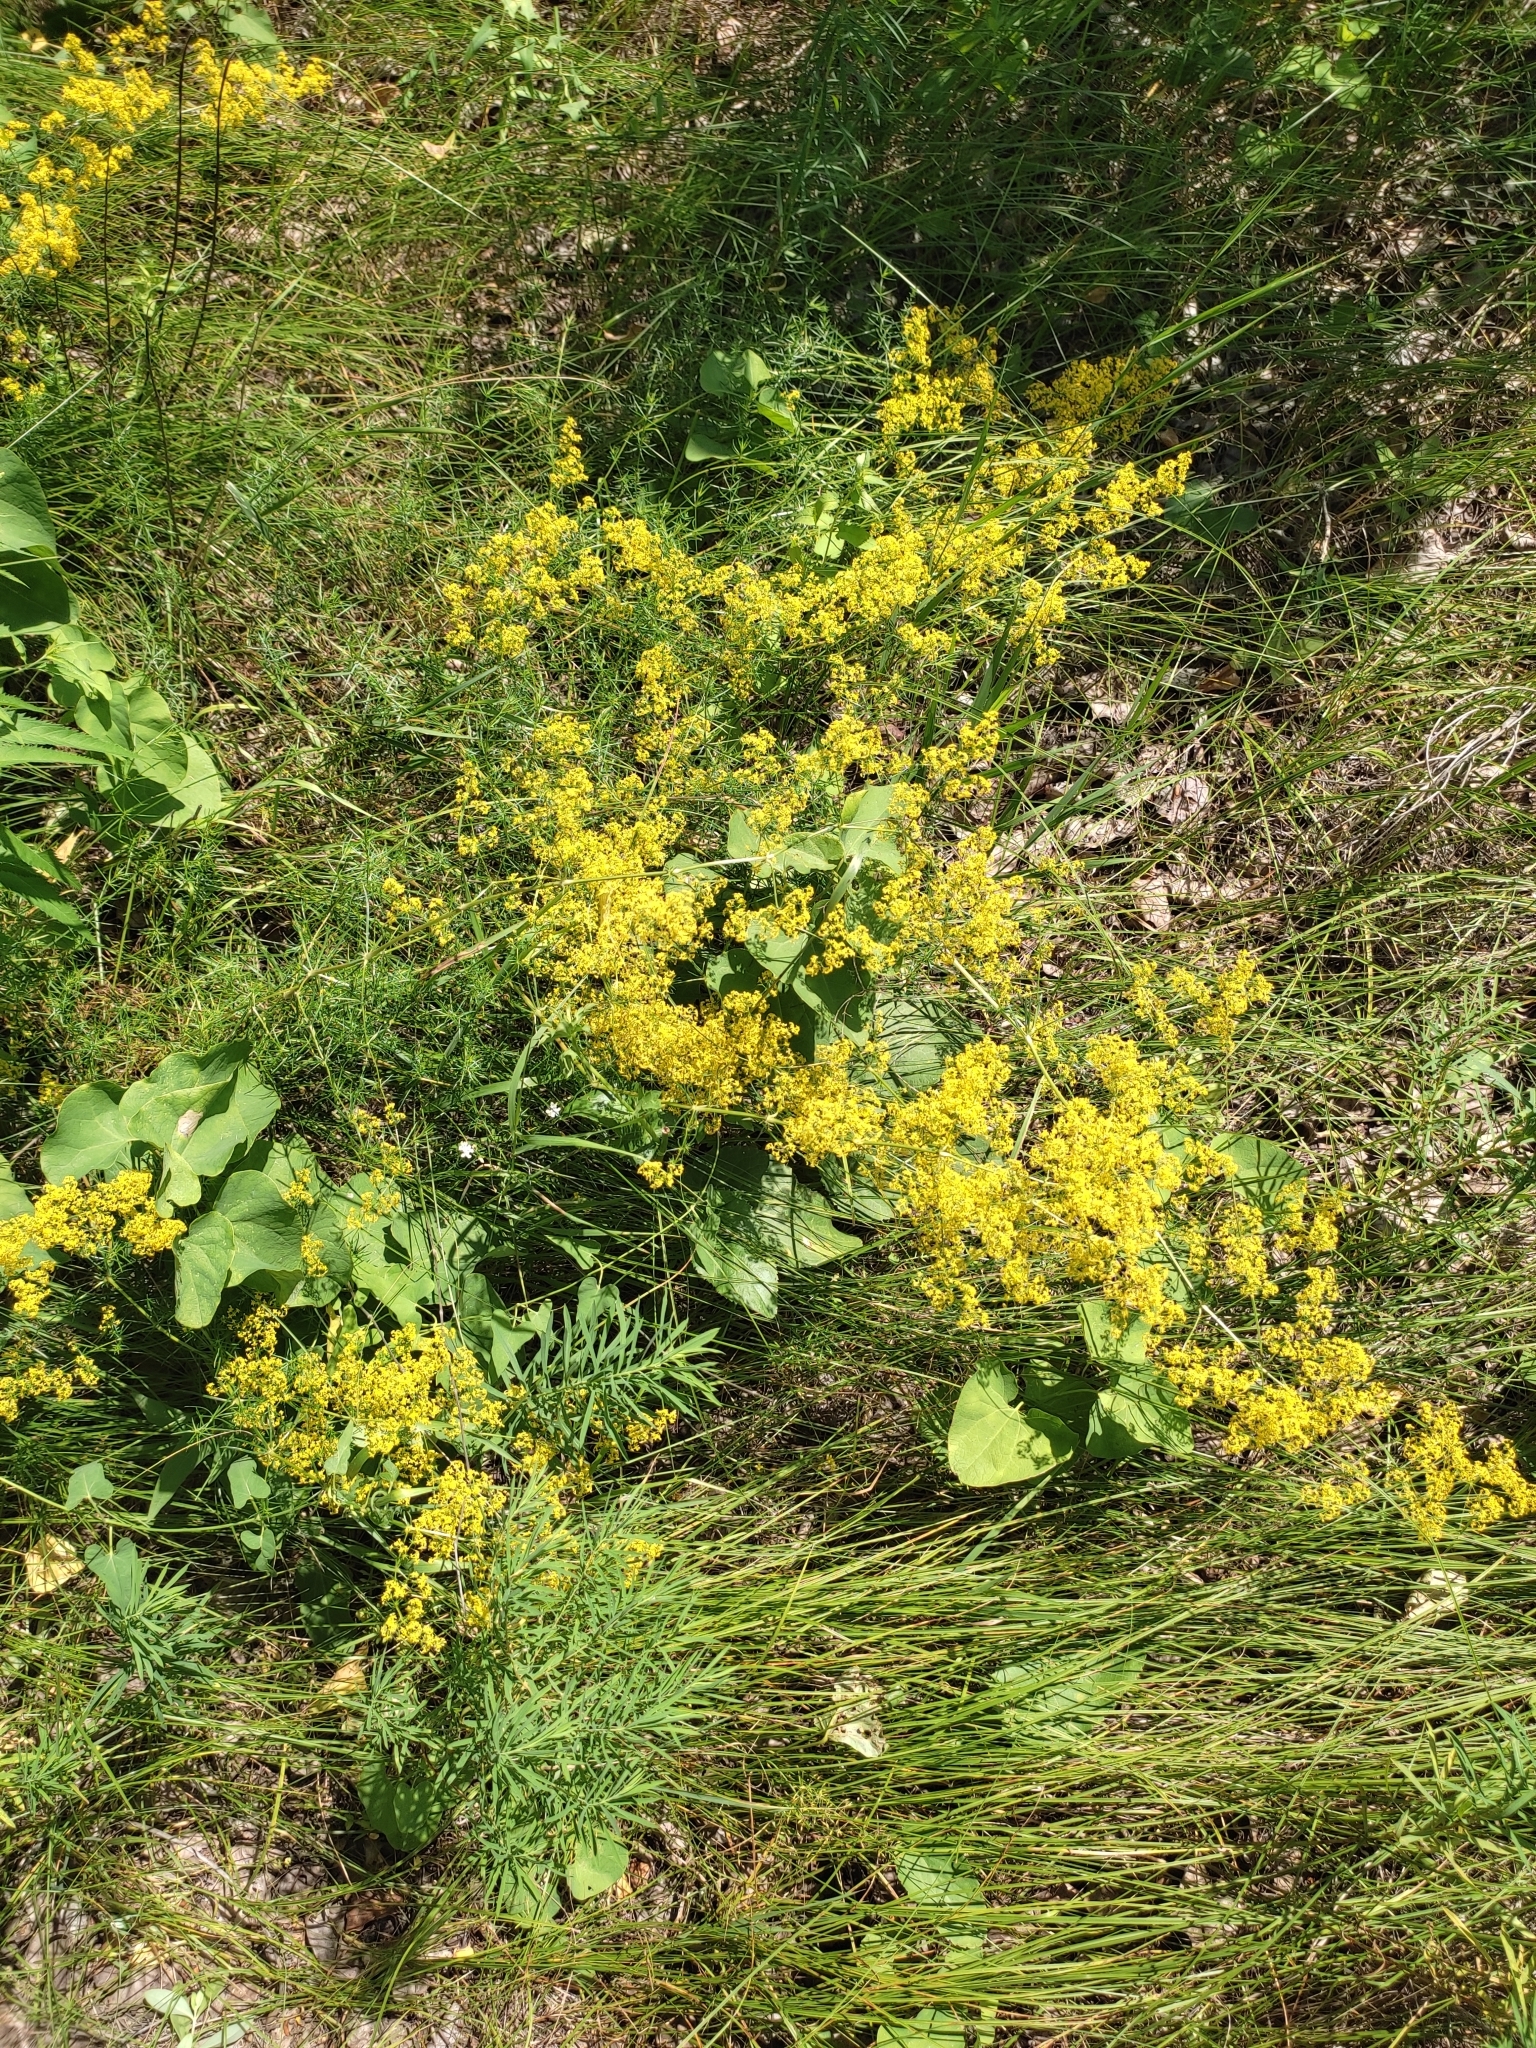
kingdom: Plantae
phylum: Tracheophyta
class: Magnoliopsida
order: Gentianales
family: Rubiaceae
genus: Galium
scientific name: Galium verum
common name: Lady's bedstraw
